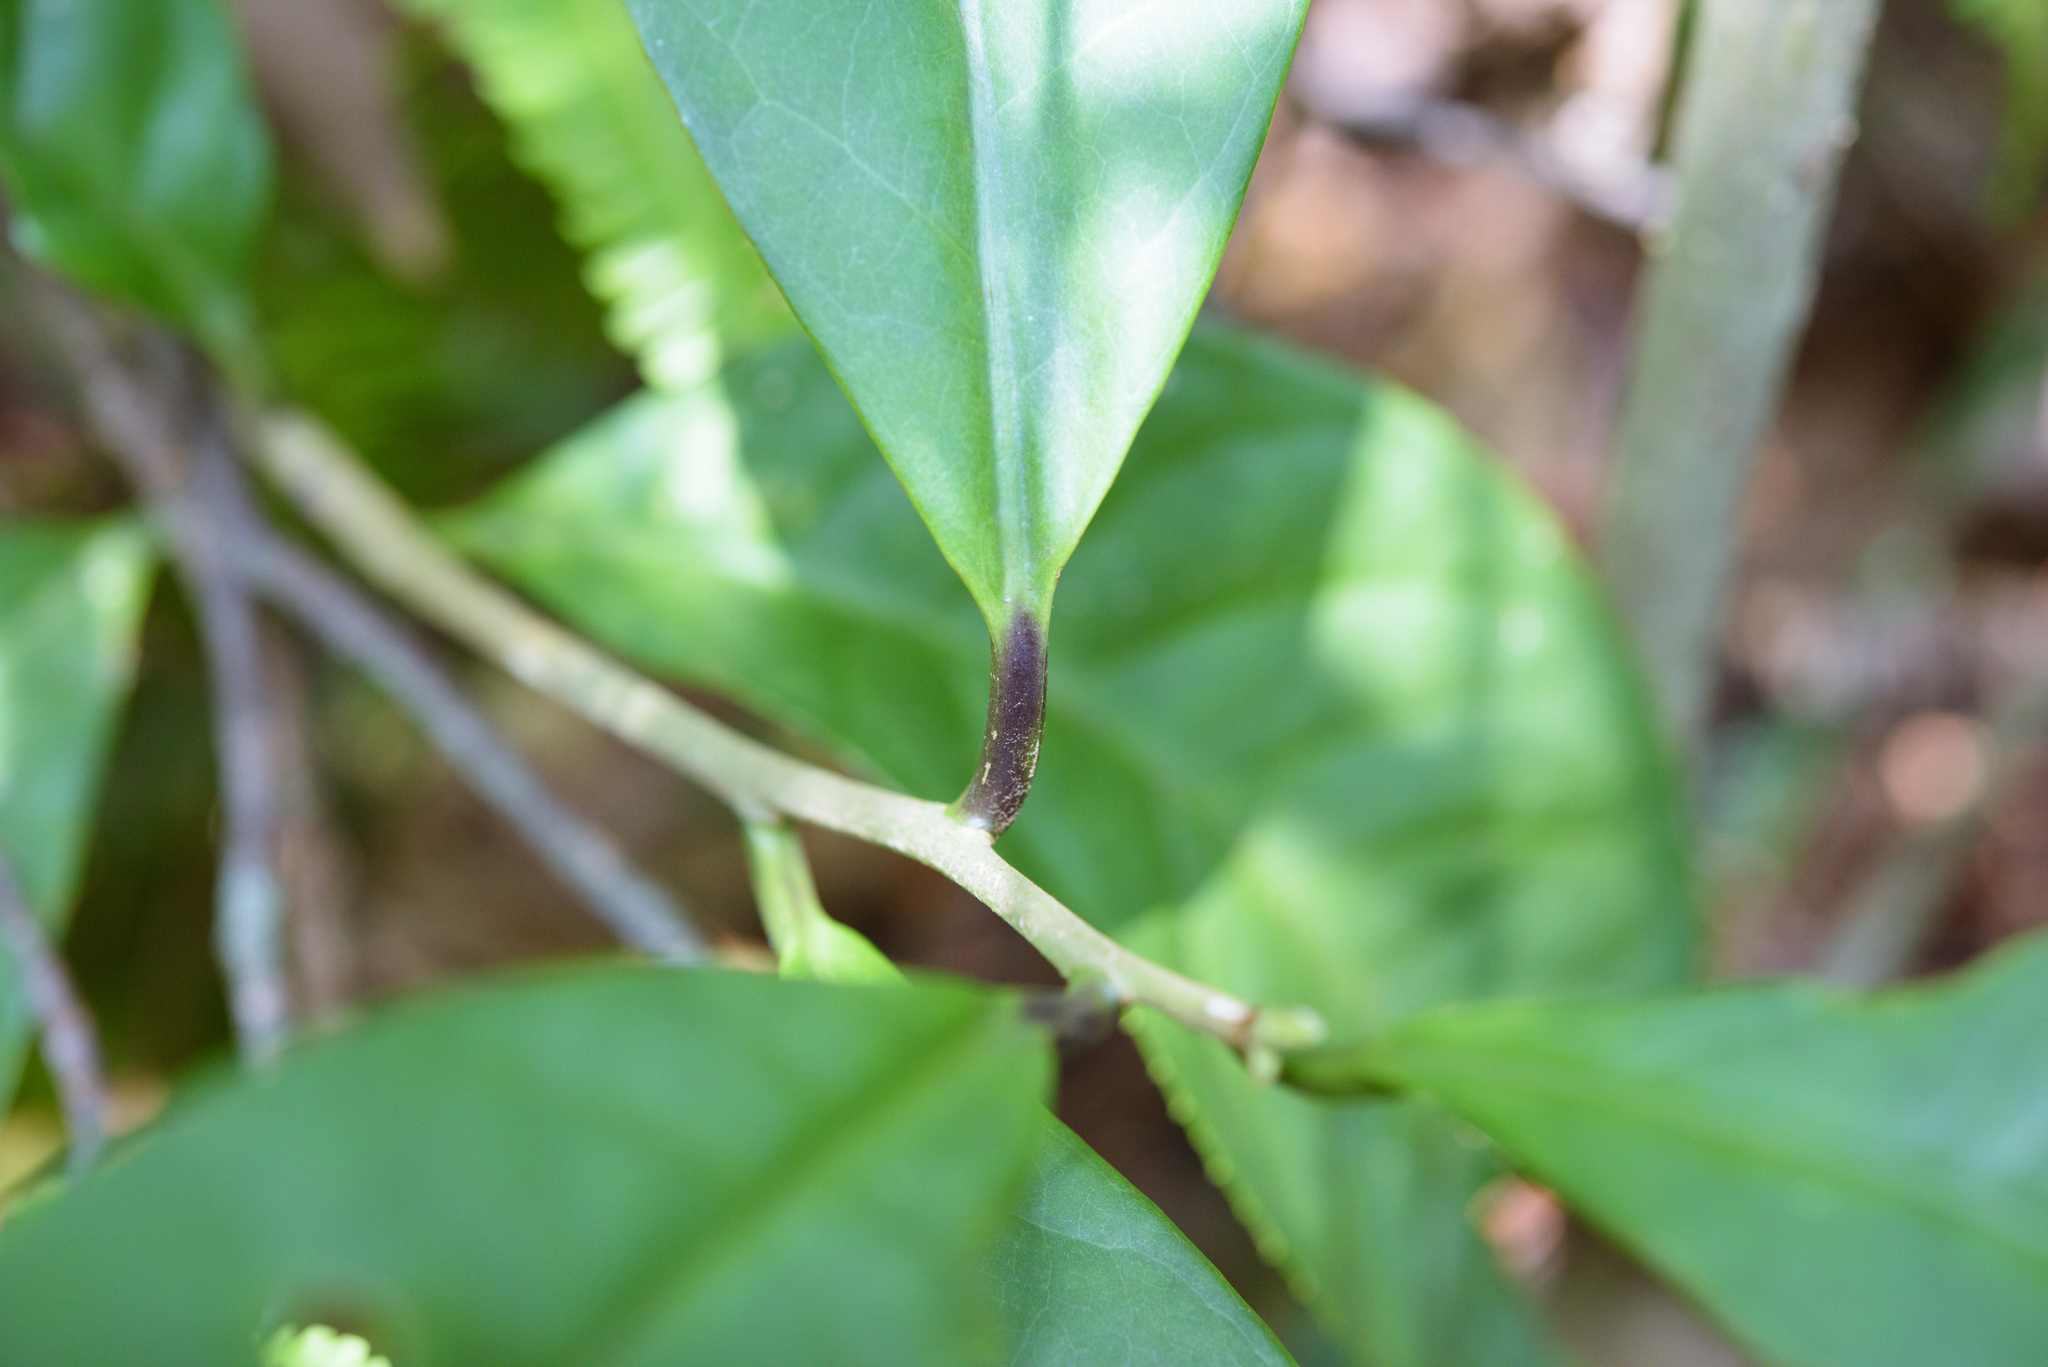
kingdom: Plantae
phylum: Tracheophyta
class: Magnoliopsida
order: Ericales
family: Symplocaceae
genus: Symplocos
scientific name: Symplocos acuminata
